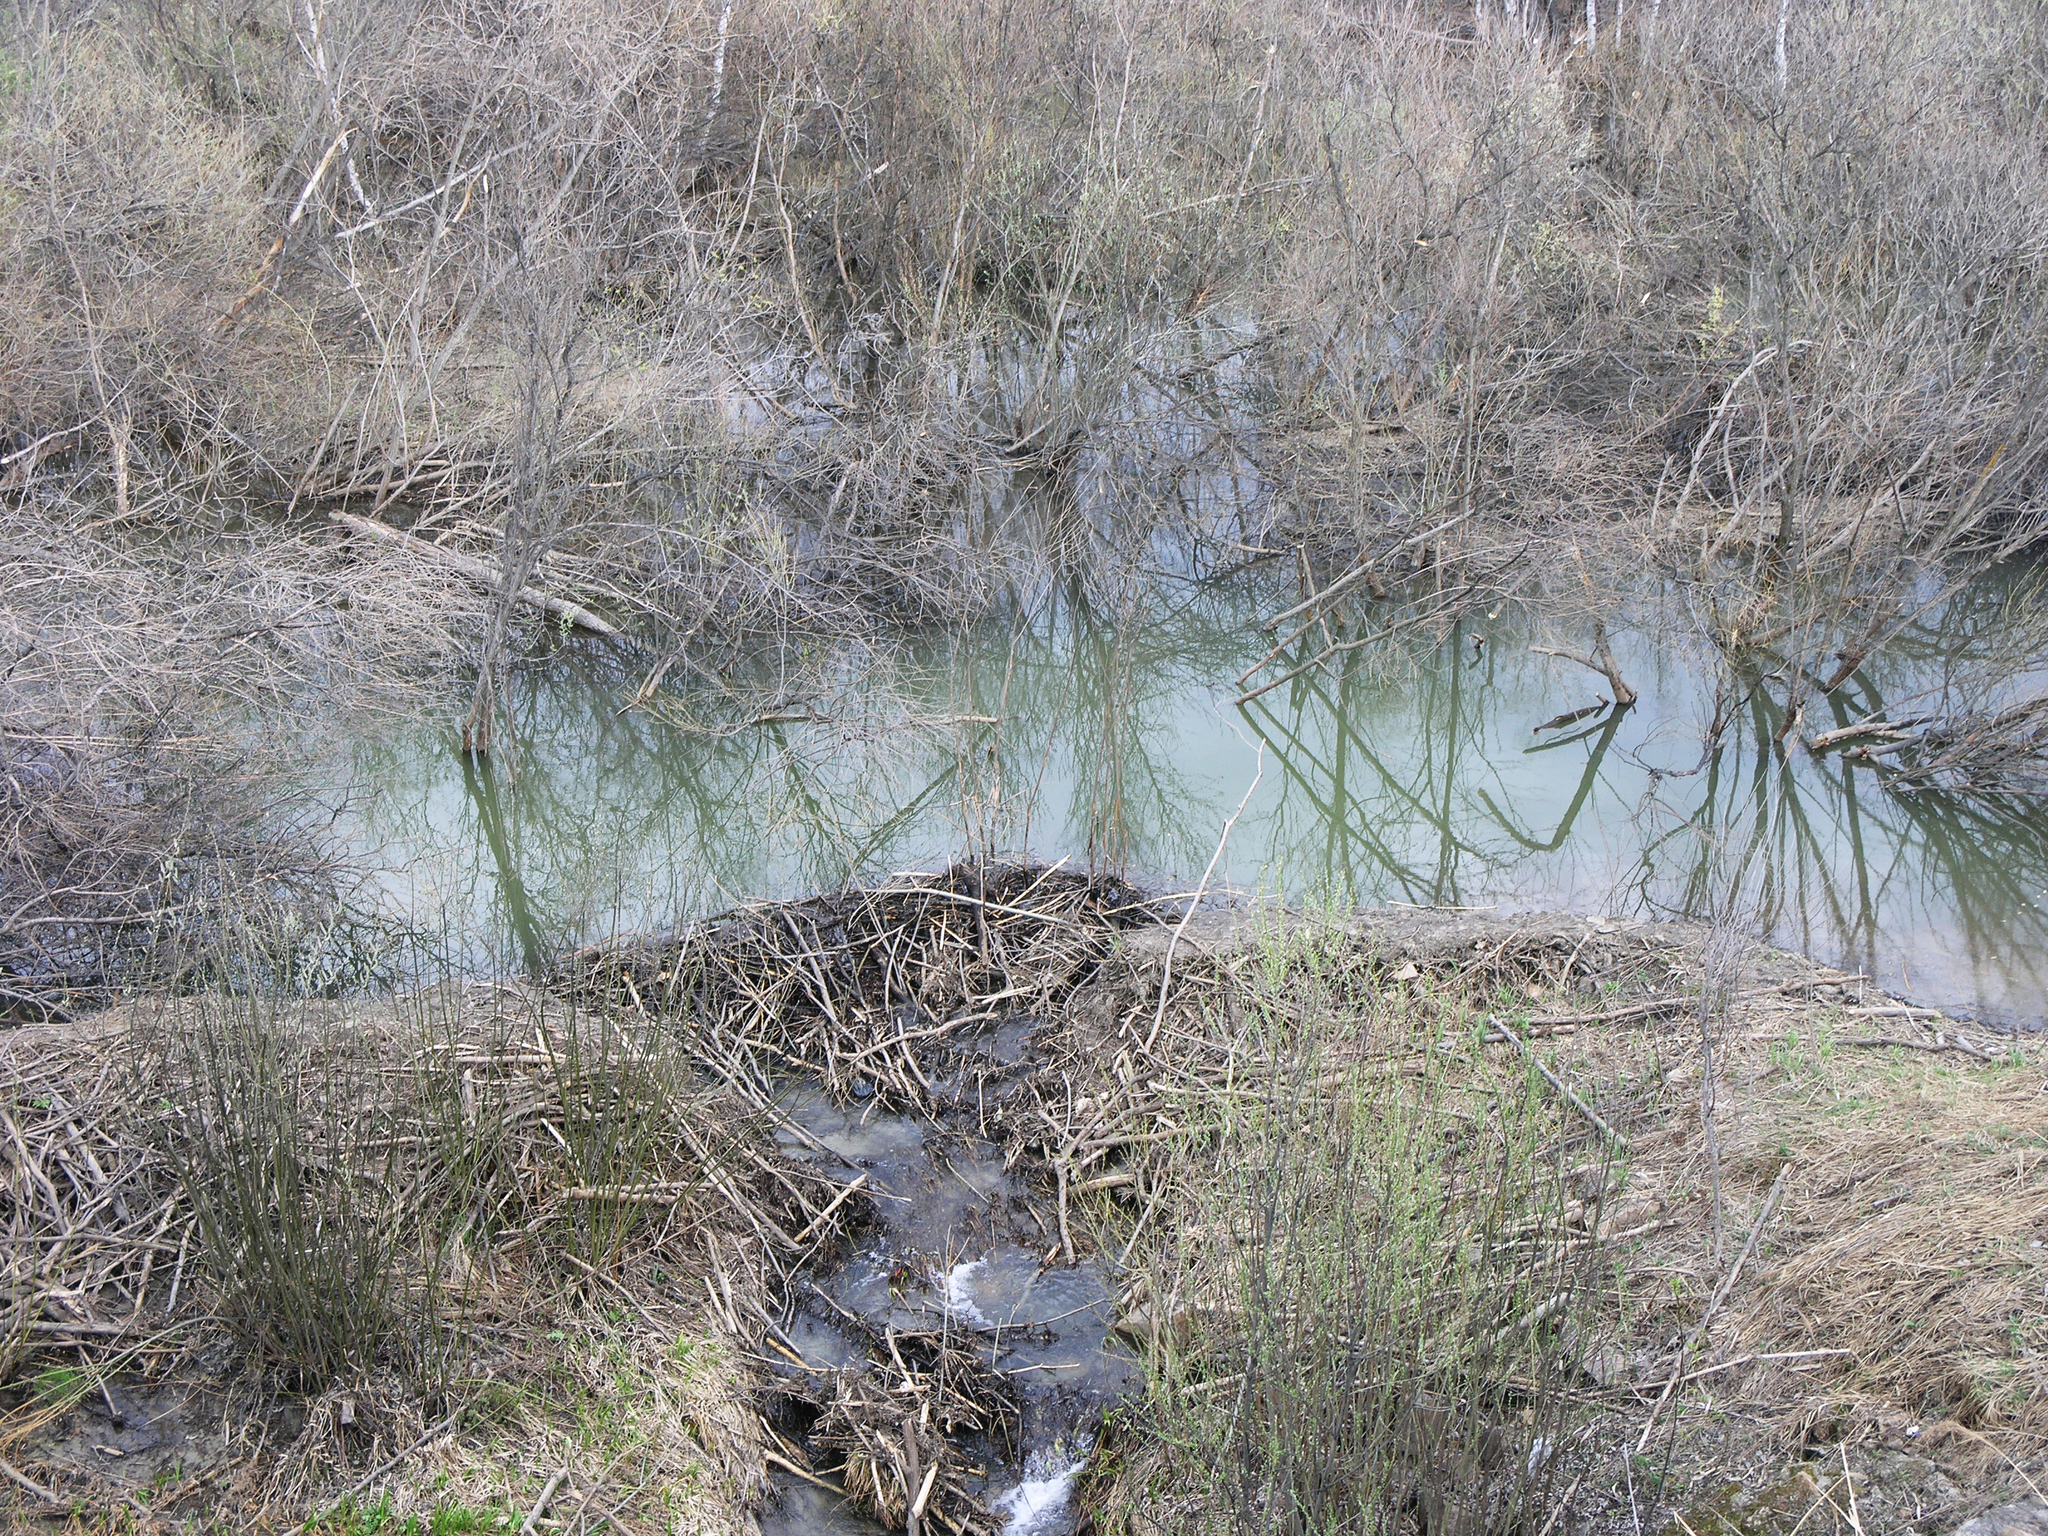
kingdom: Animalia
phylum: Chordata
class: Mammalia
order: Rodentia
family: Castoridae
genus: Castor
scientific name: Castor fiber
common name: Eurasian beaver
